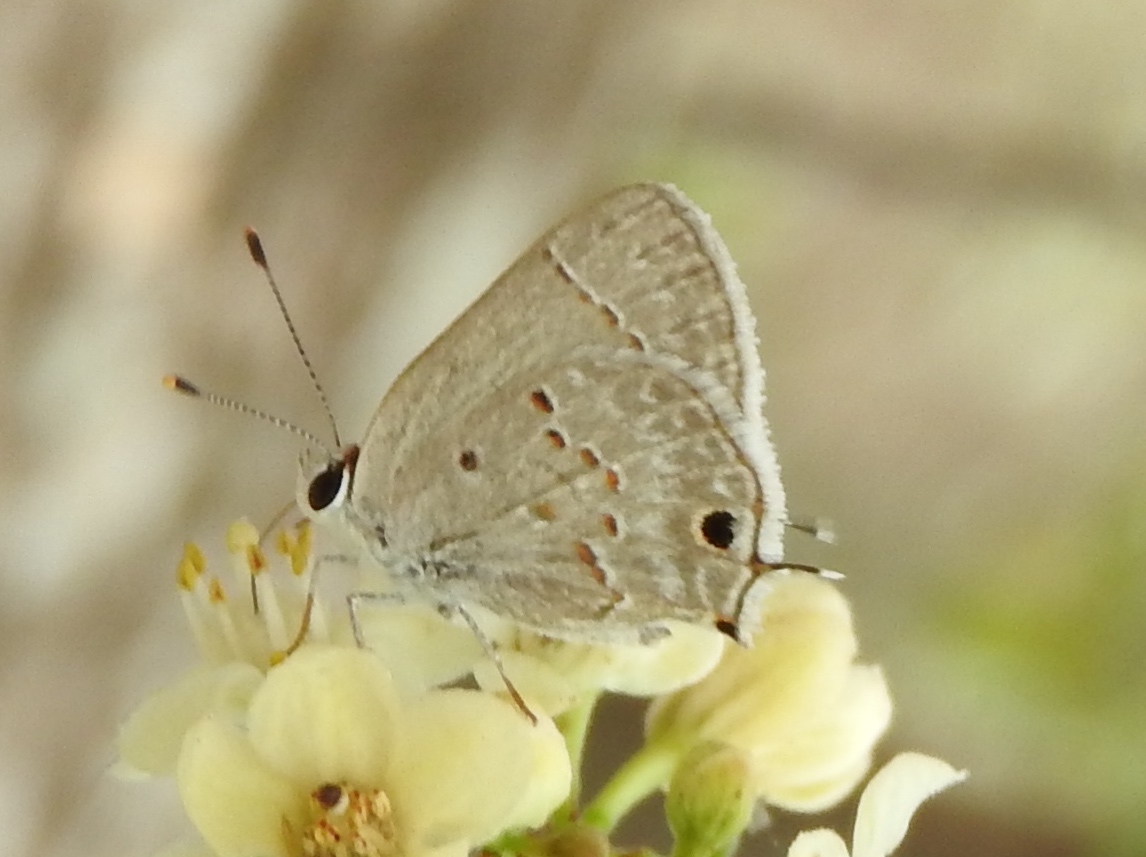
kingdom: Animalia
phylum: Arthropoda
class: Insecta
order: Lepidoptera
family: Lycaenidae
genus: Callicista
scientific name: Callicista columella
